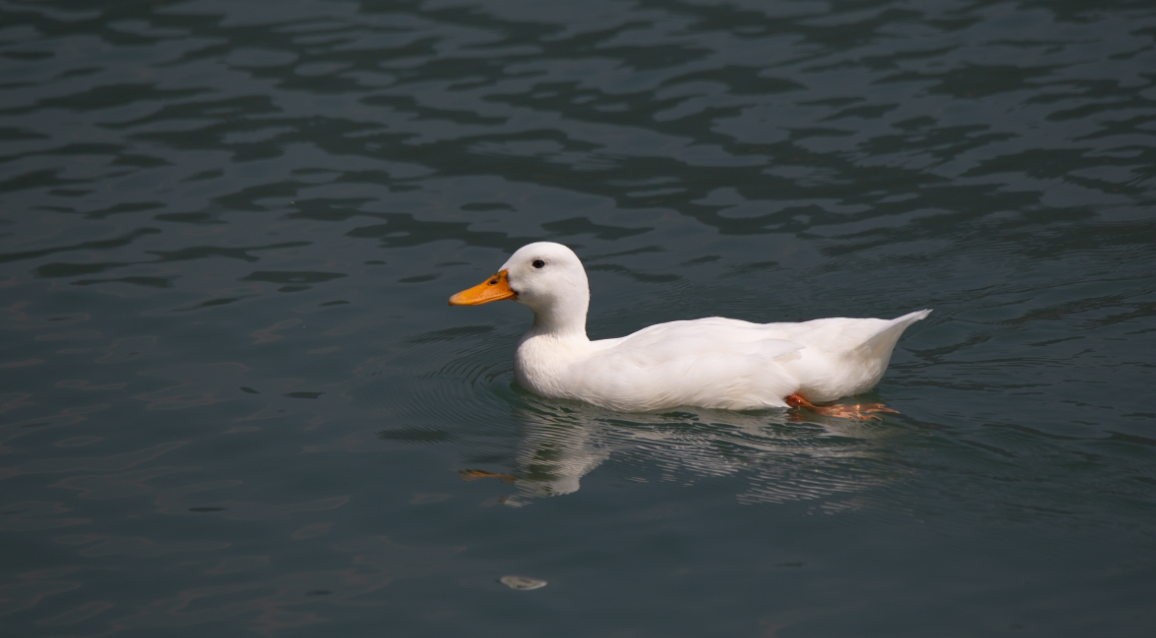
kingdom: Animalia
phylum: Chordata
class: Aves
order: Anseriformes
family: Anatidae
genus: Anas
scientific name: Anas platyrhynchos
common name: Mallard
